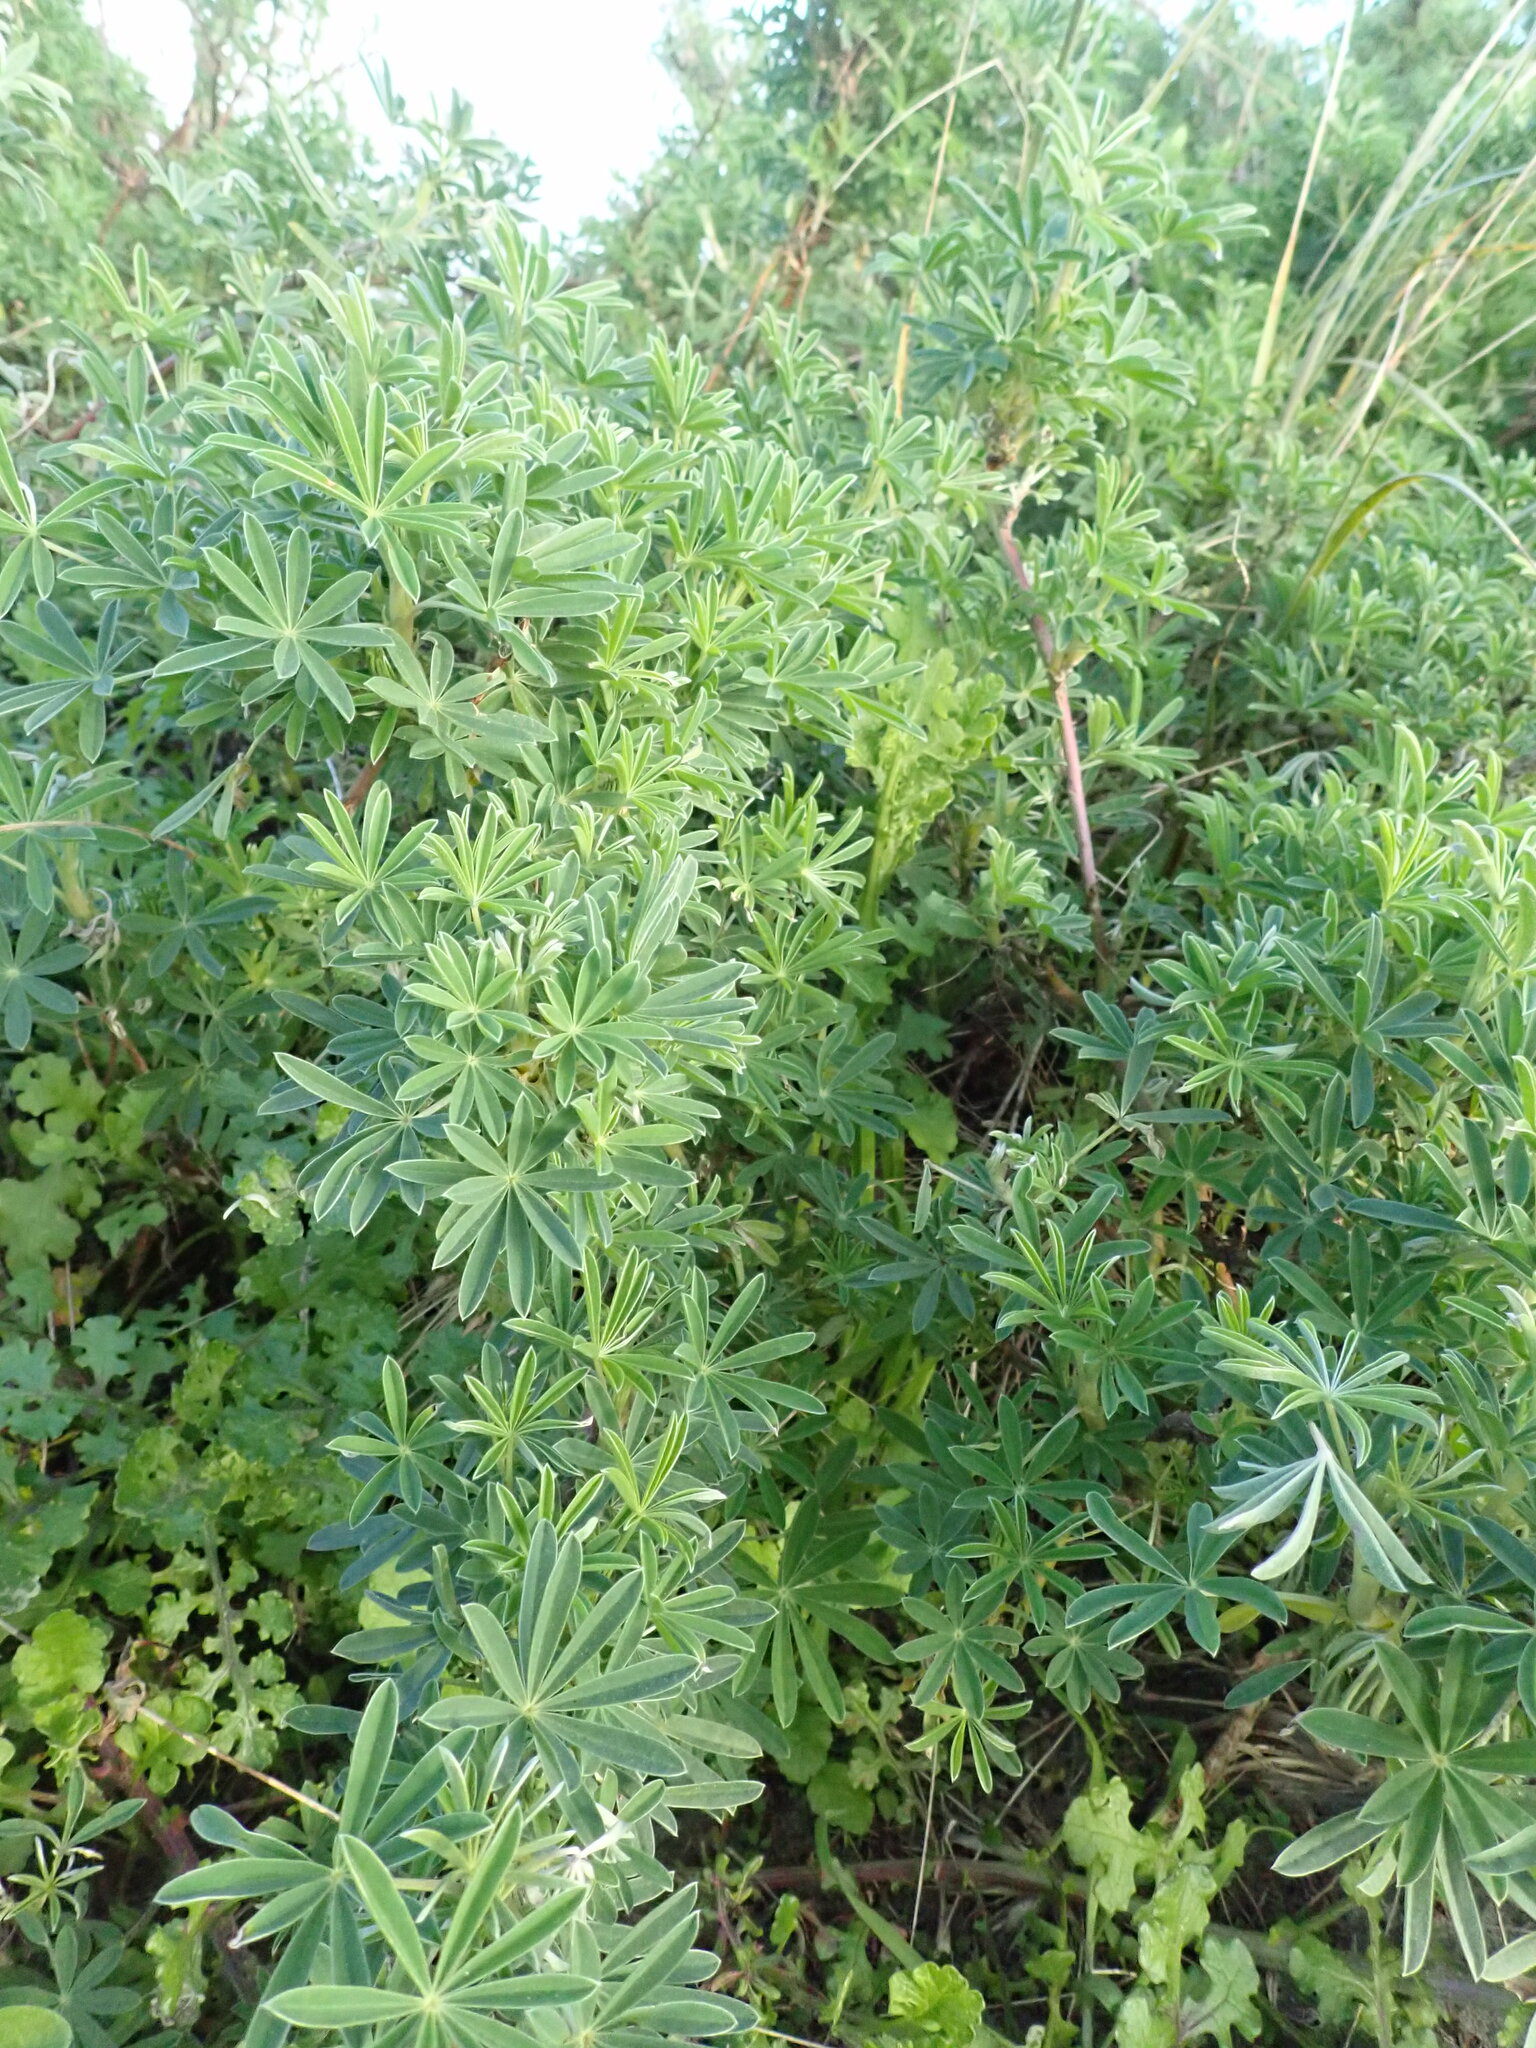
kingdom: Plantae
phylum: Tracheophyta
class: Magnoliopsida
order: Fabales
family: Fabaceae
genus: Lupinus
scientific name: Lupinus arboreus
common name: Yellow bush lupine
